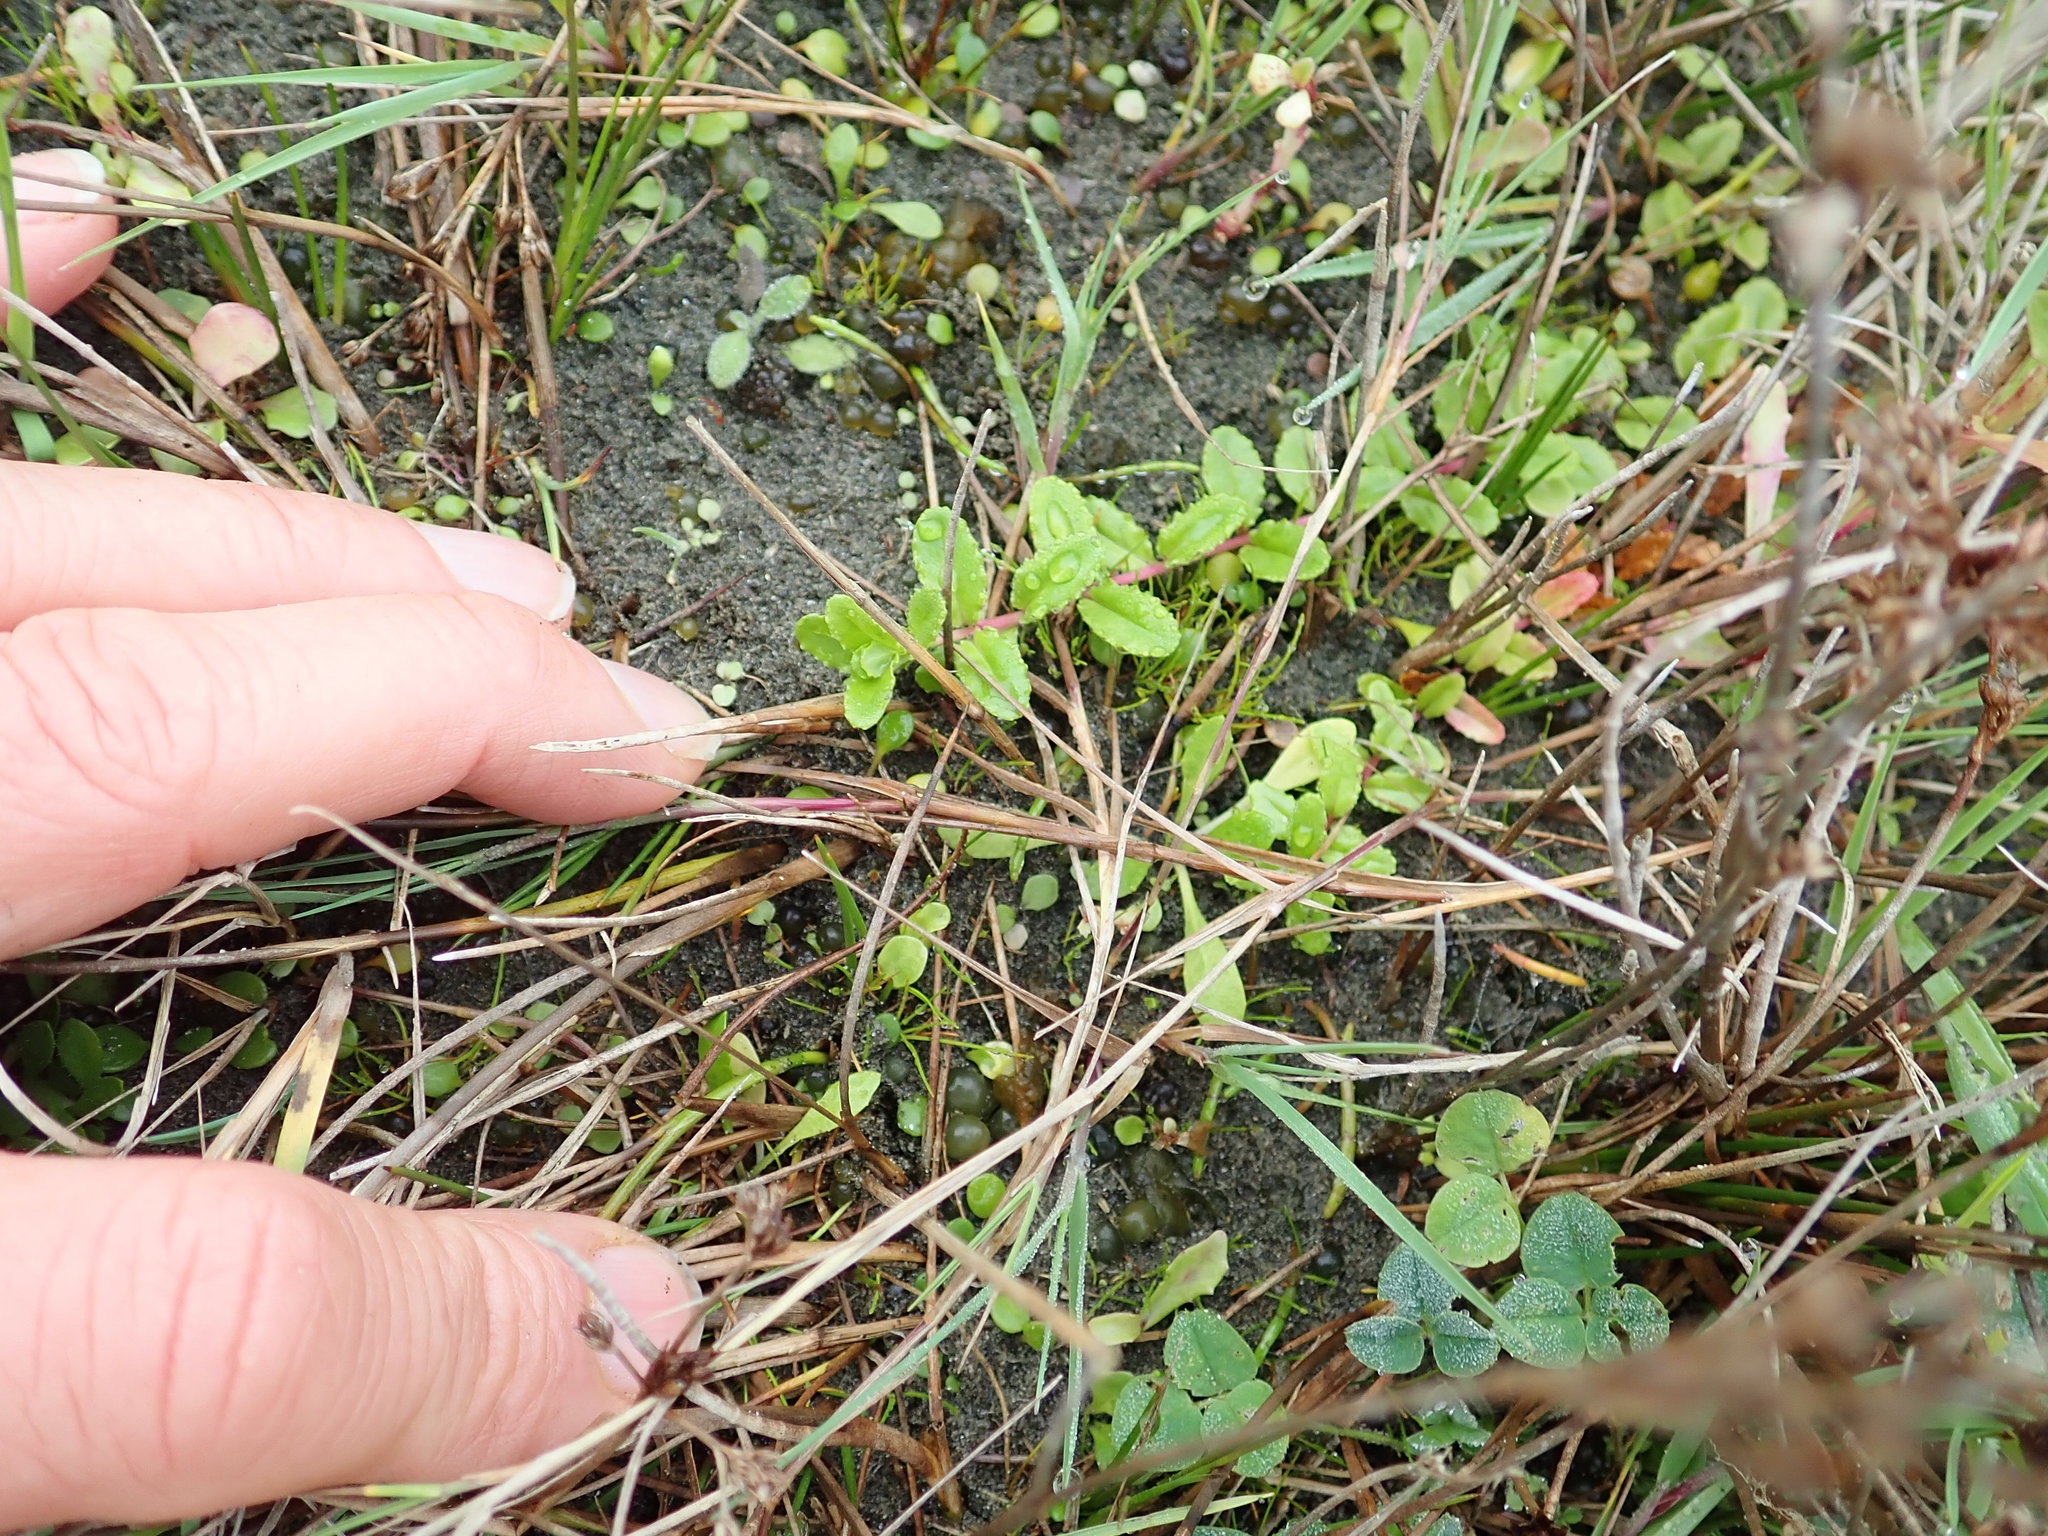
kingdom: Plantae
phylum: Tracheophyta
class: Magnoliopsida
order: Myrtales
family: Onagraceae
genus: Epilobium
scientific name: Epilobium billardiereanum
